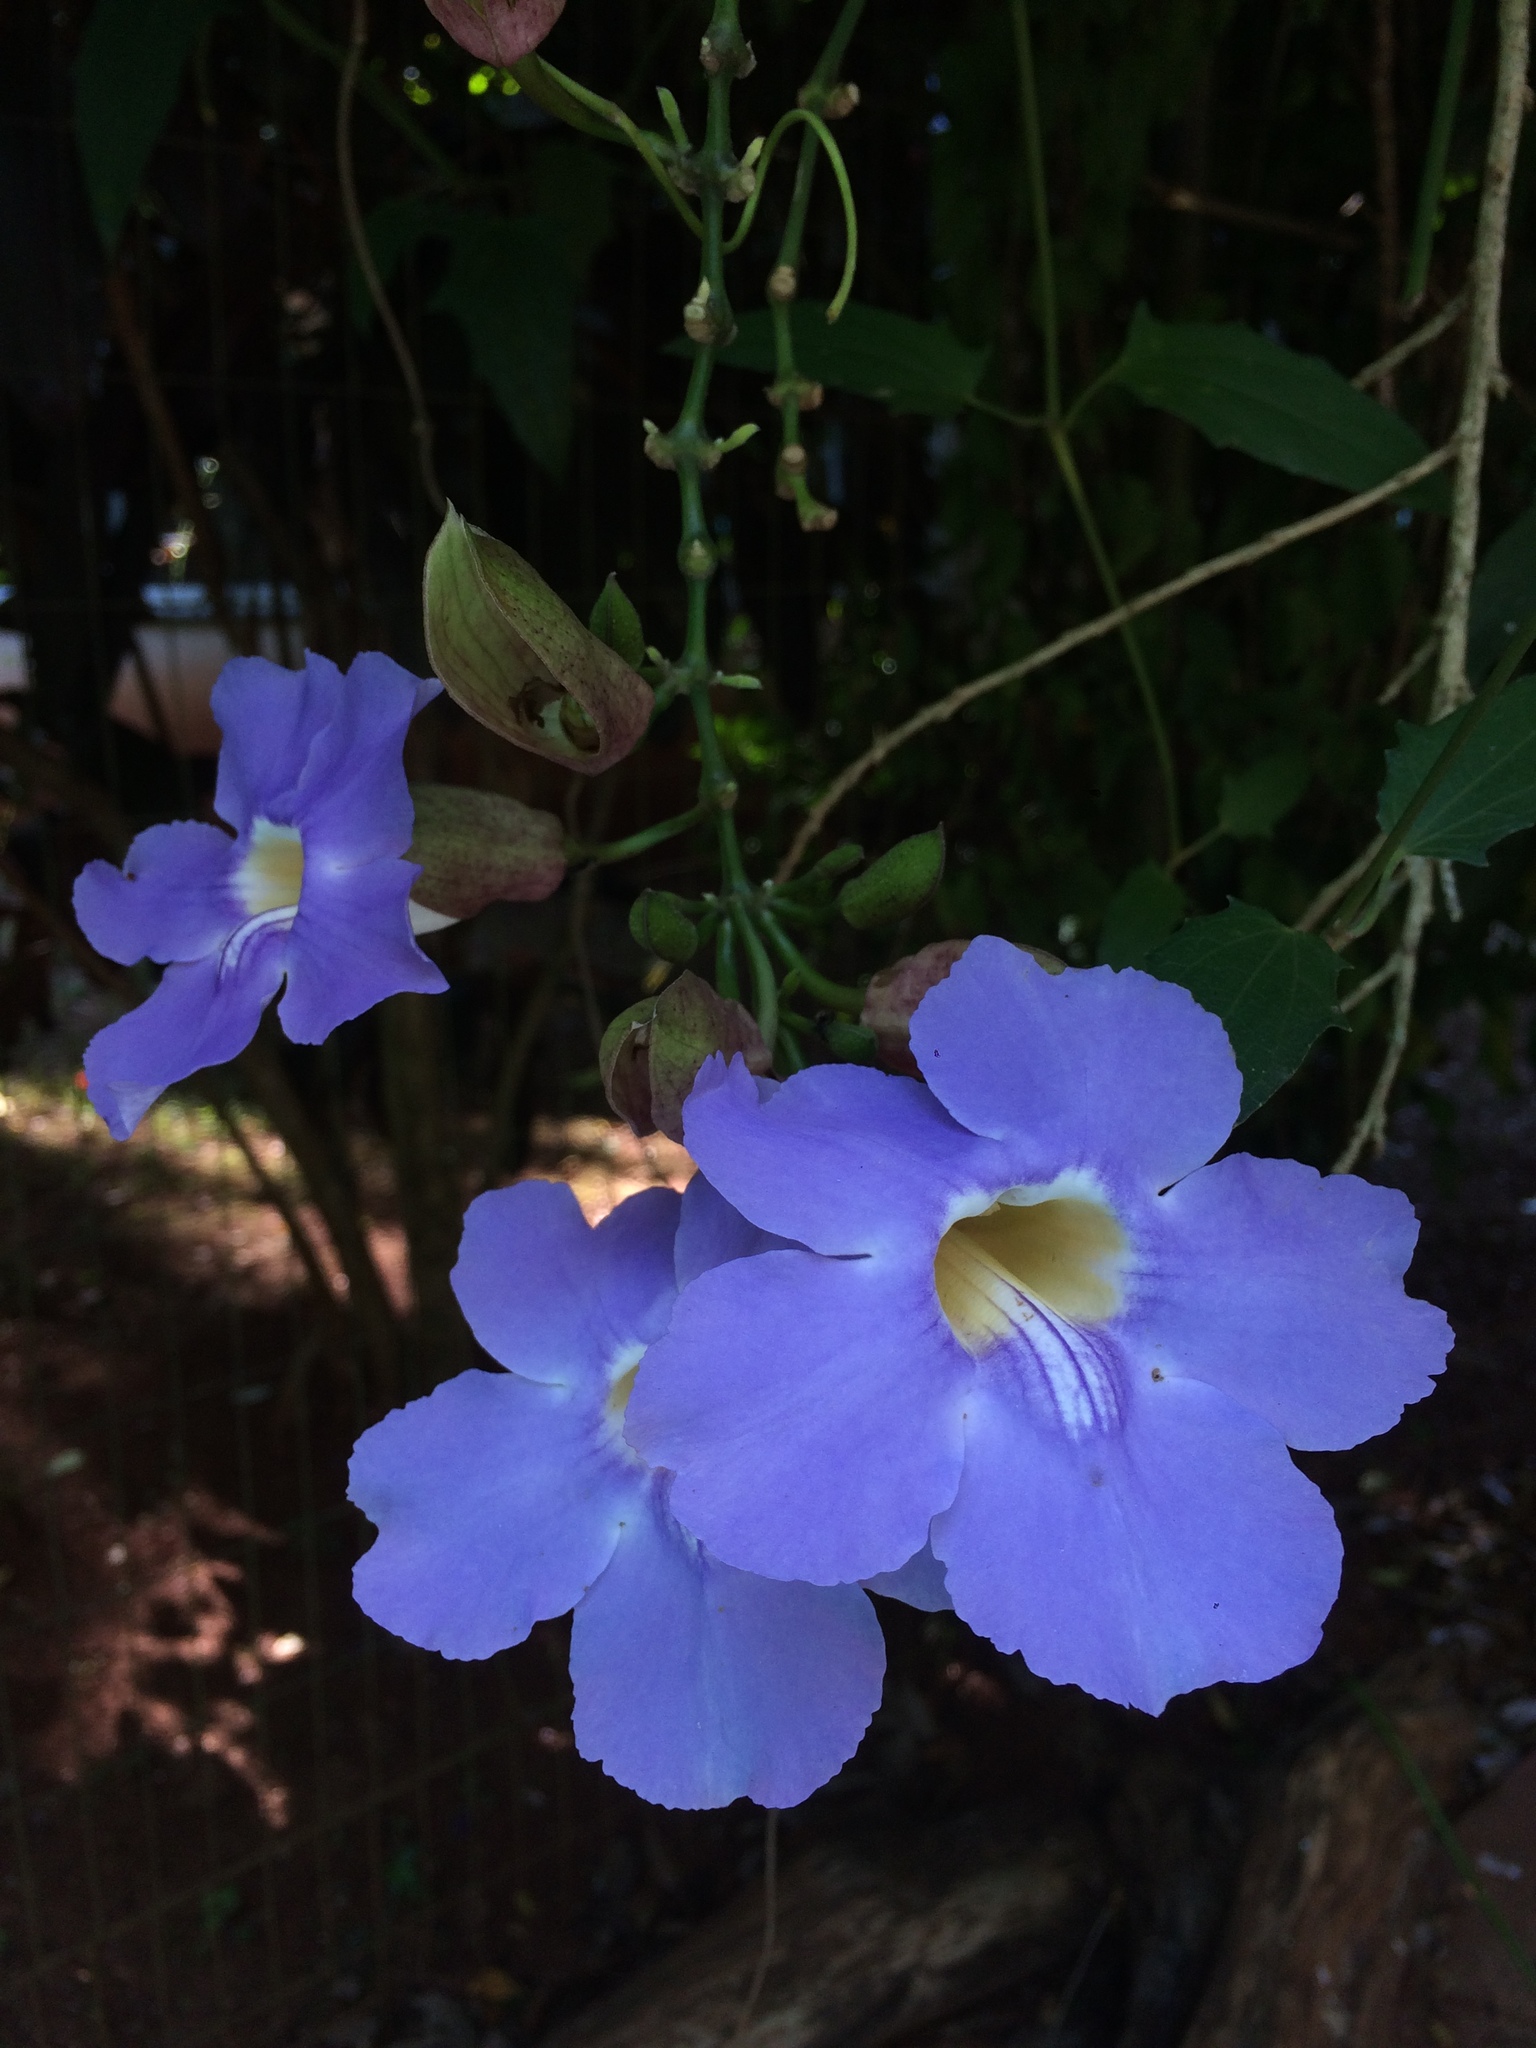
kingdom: Plantae
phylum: Tracheophyta
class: Magnoliopsida
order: Lamiales
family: Acanthaceae
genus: Thunbergia
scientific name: Thunbergia grandiflora
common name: Bengal trumpet
